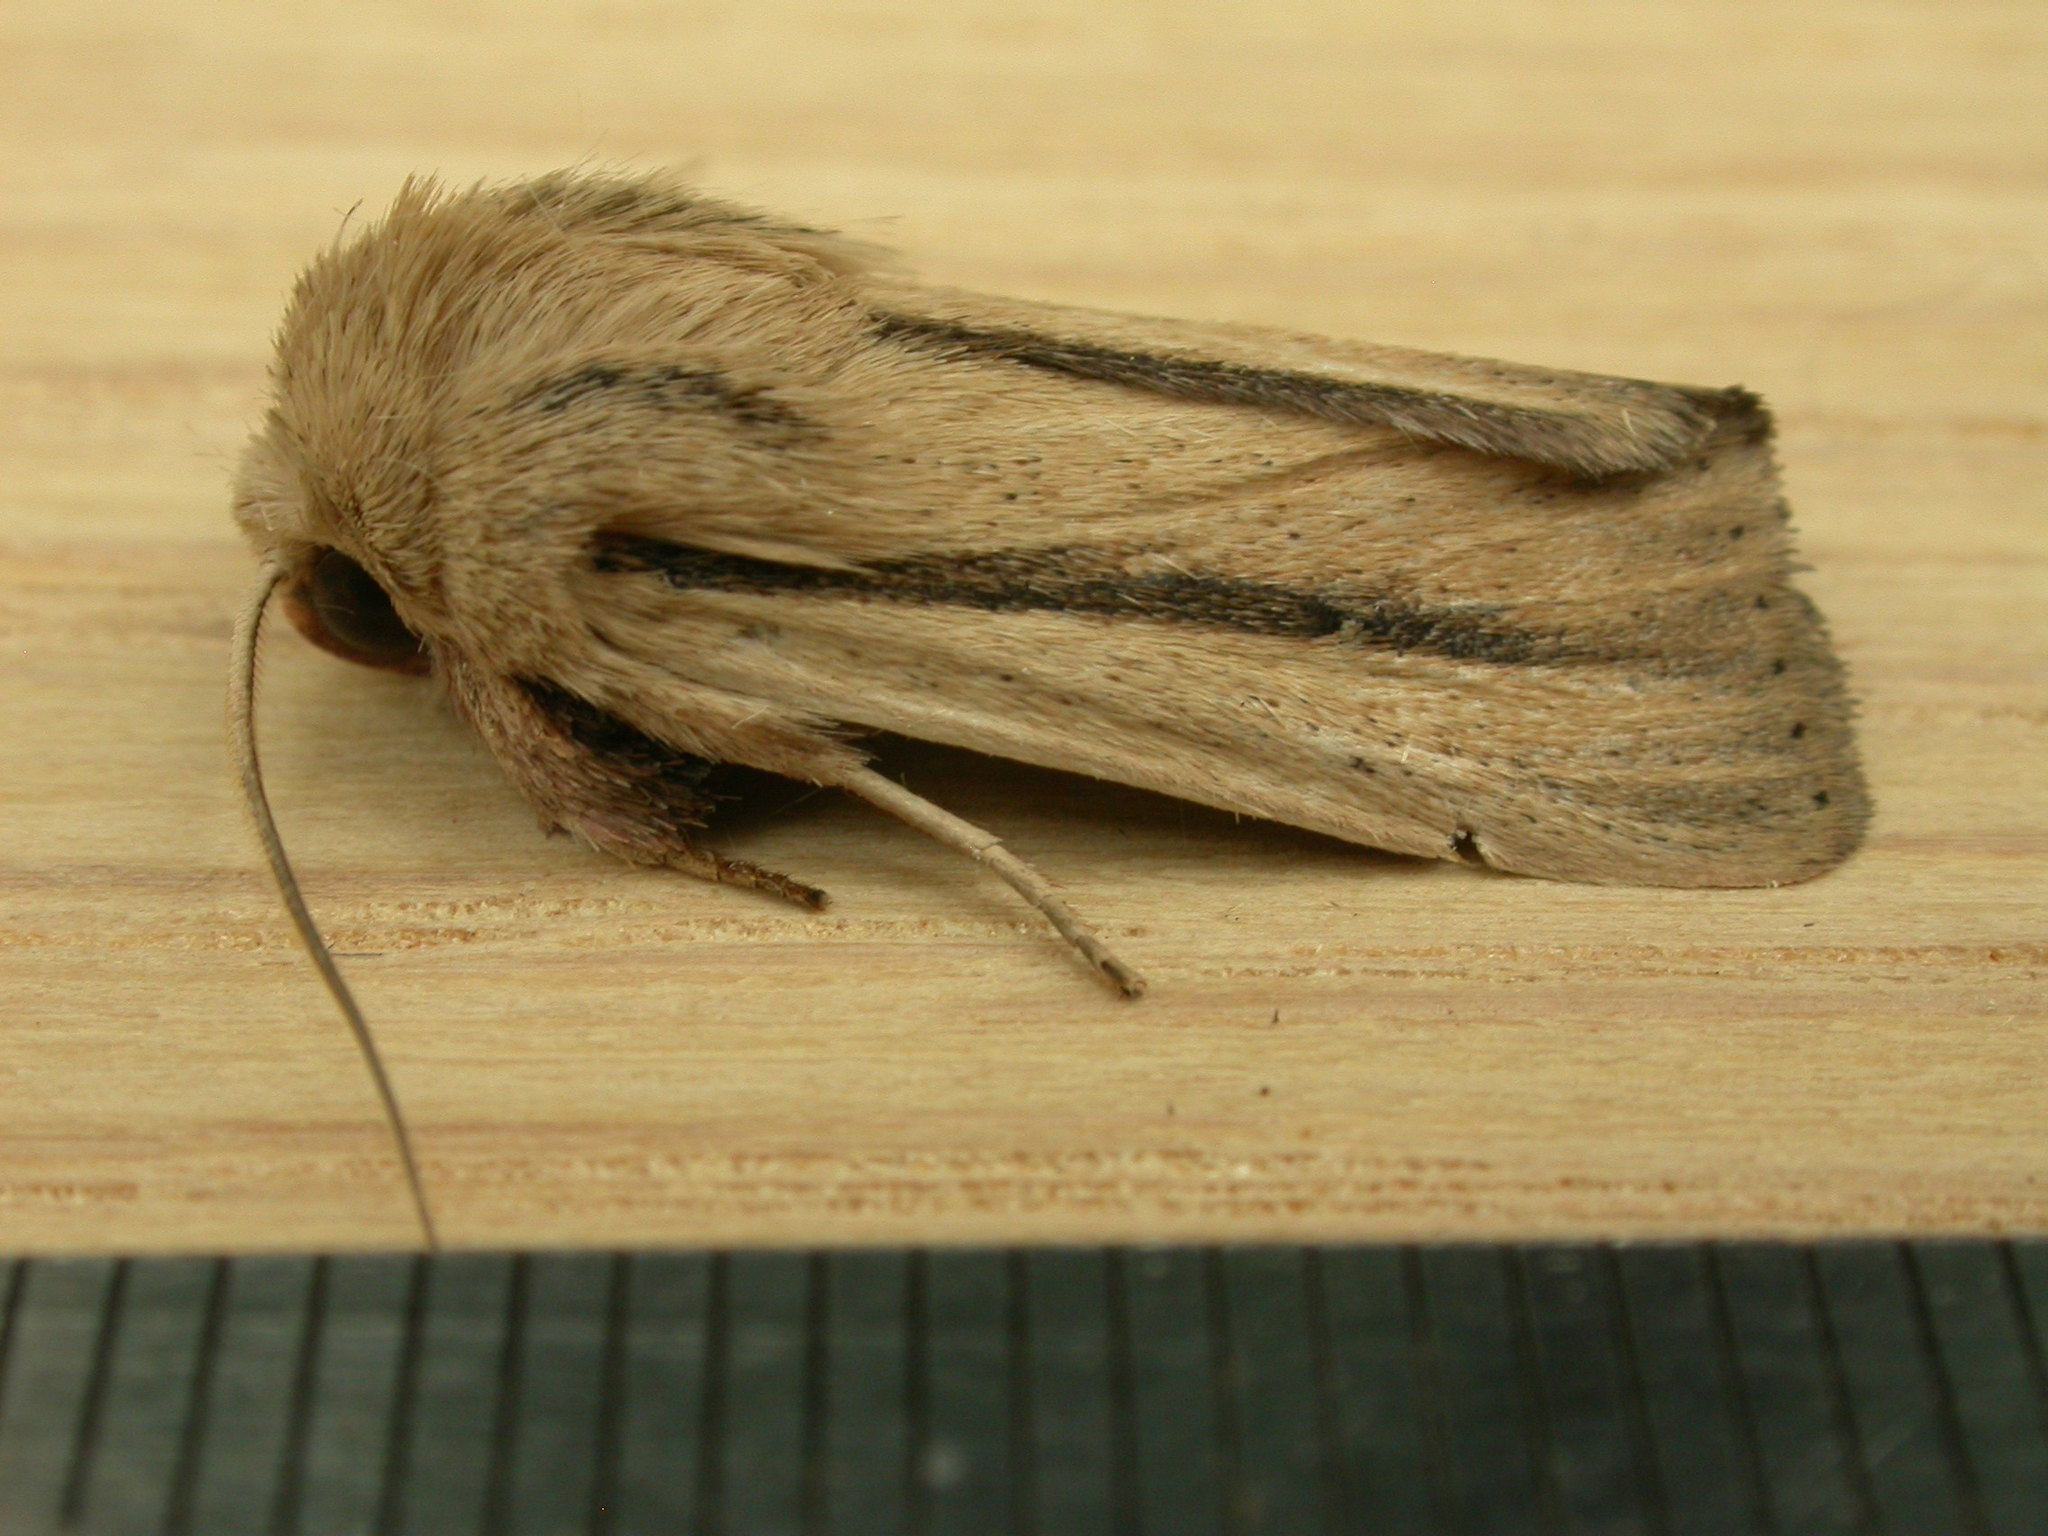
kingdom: Animalia
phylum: Arthropoda
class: Insecta
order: Lepidoptera
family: Noctuidae
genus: Leucania
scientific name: Leucania diatrecta
